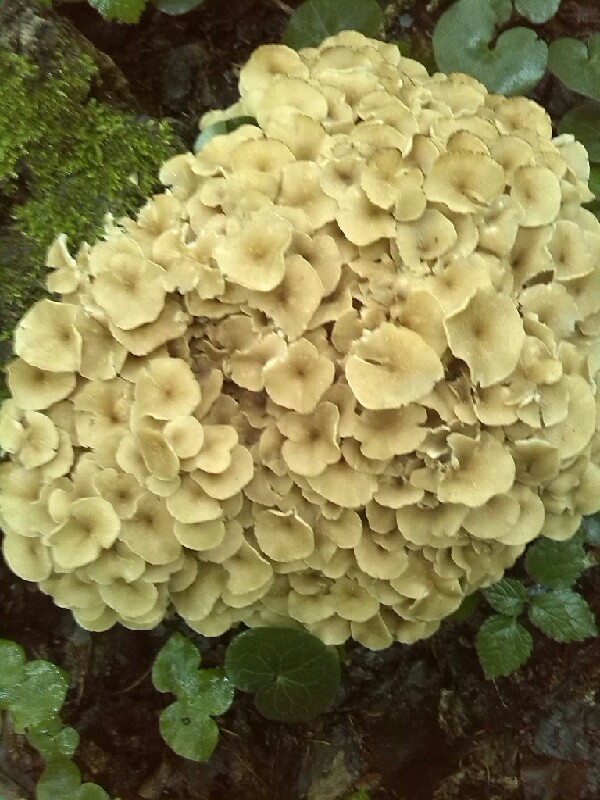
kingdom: Fungi
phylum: Basidiomycota
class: Agaricomycetes
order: Polyporales
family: Polyporaceae
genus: Polyporus
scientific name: Polyporus umbellatus
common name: Umbrella polypore
